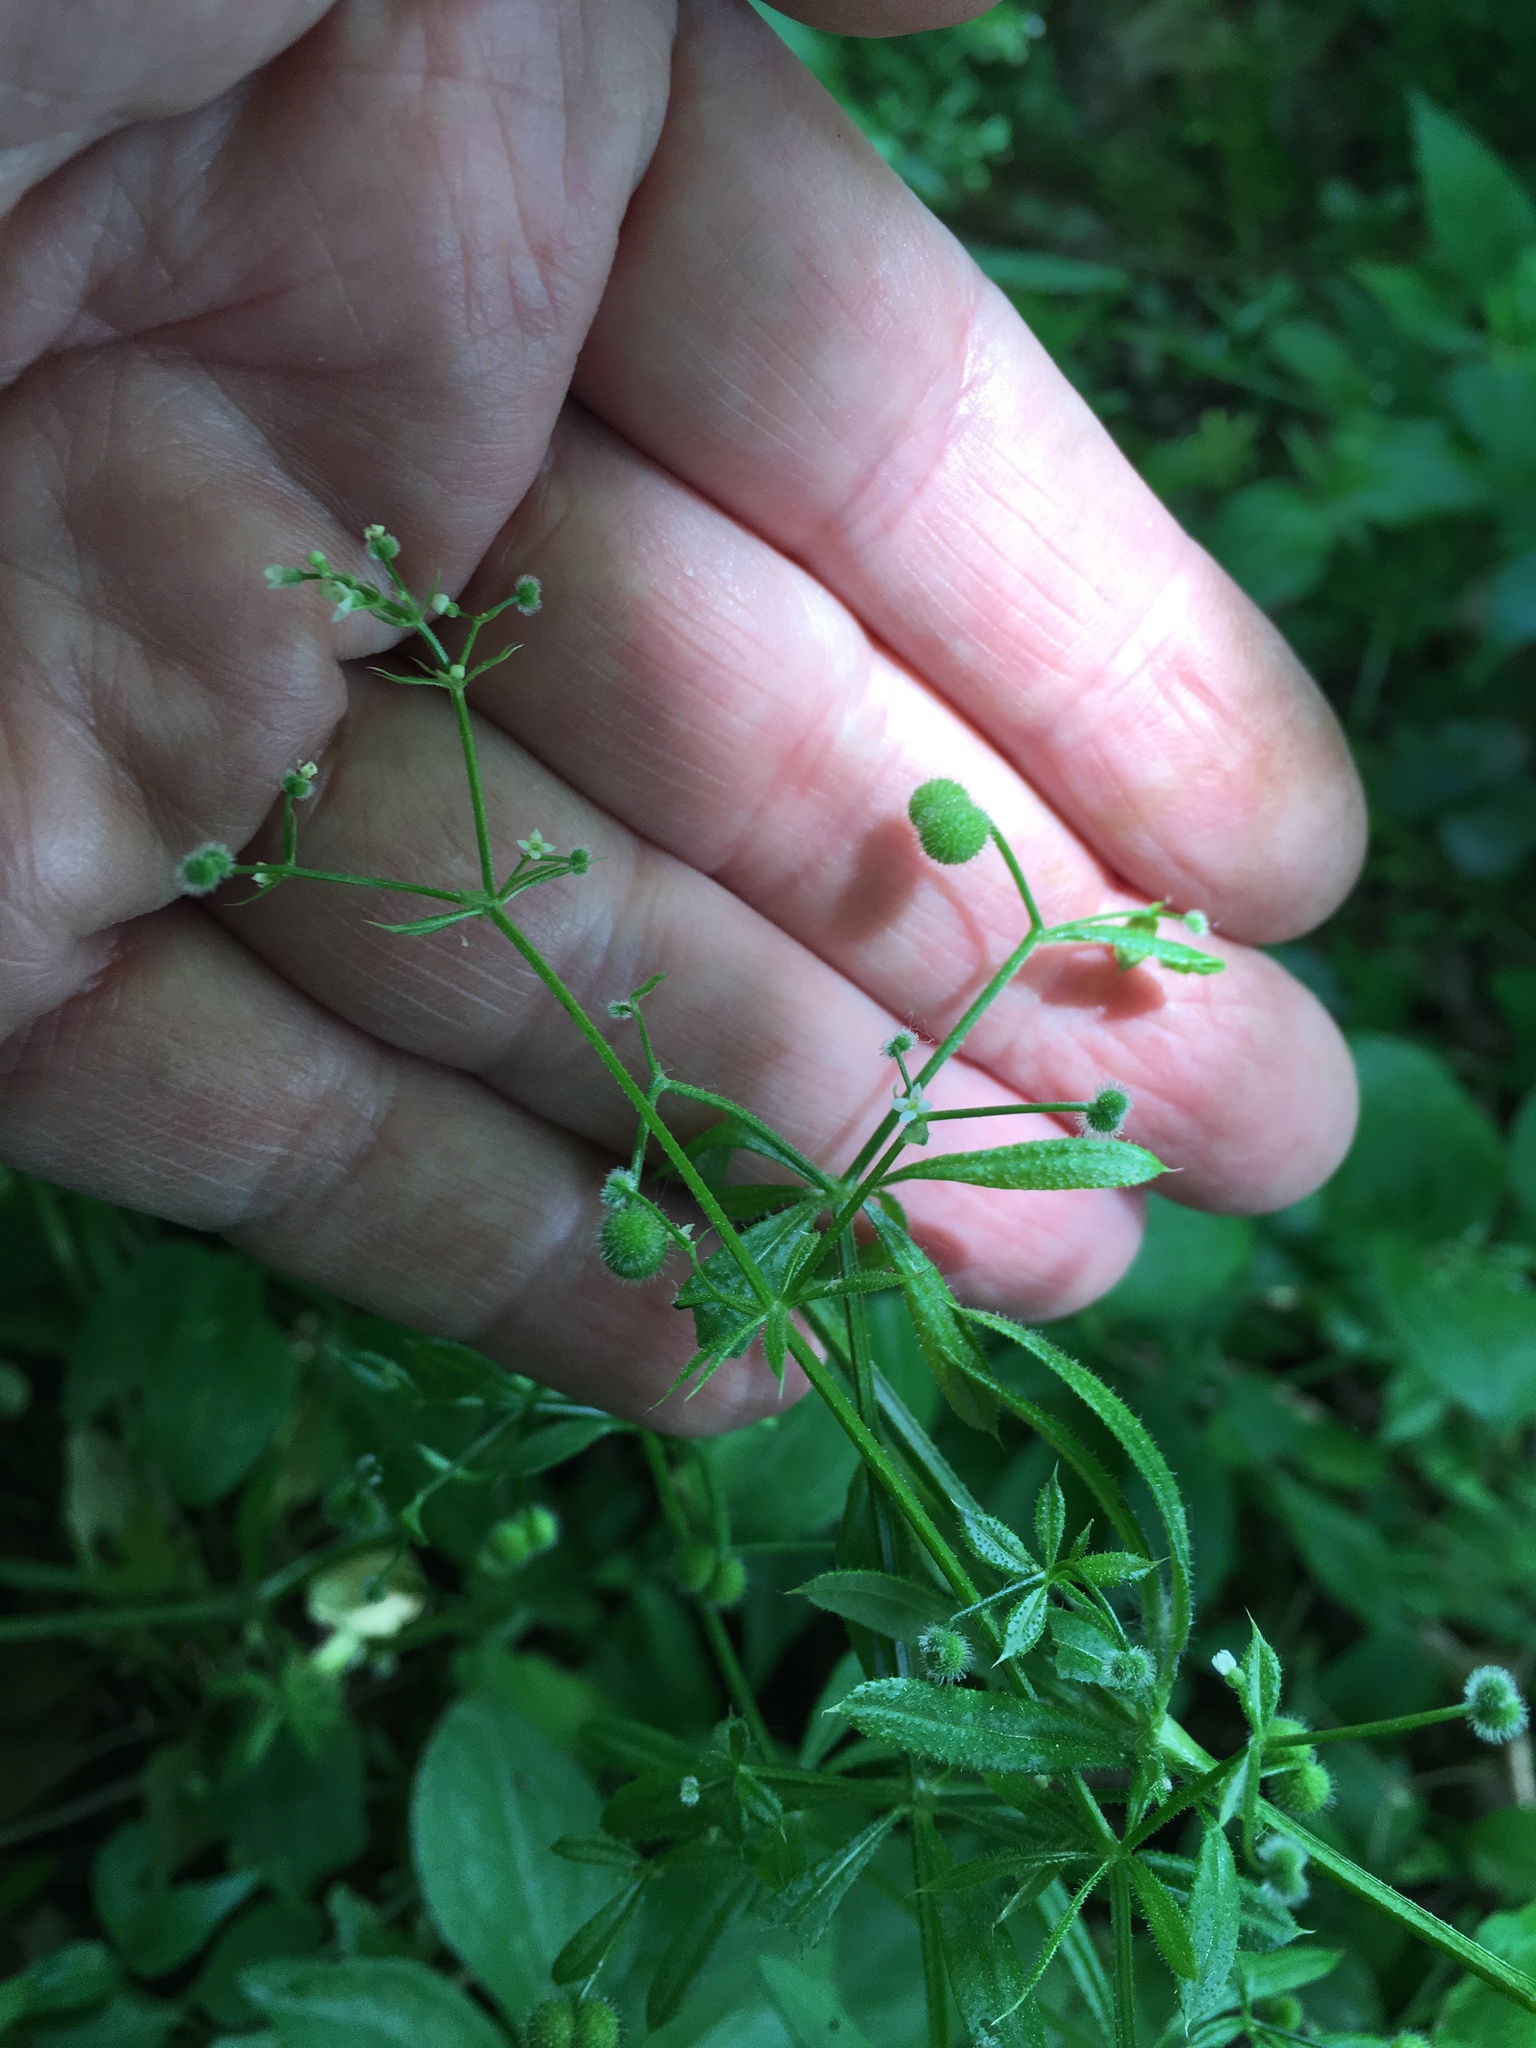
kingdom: Plantae
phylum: Tracheophyta
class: Magnoliopsida
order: Gentianales
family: Rubiaceae
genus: Galium
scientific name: Galium aparine
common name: Cleavers
